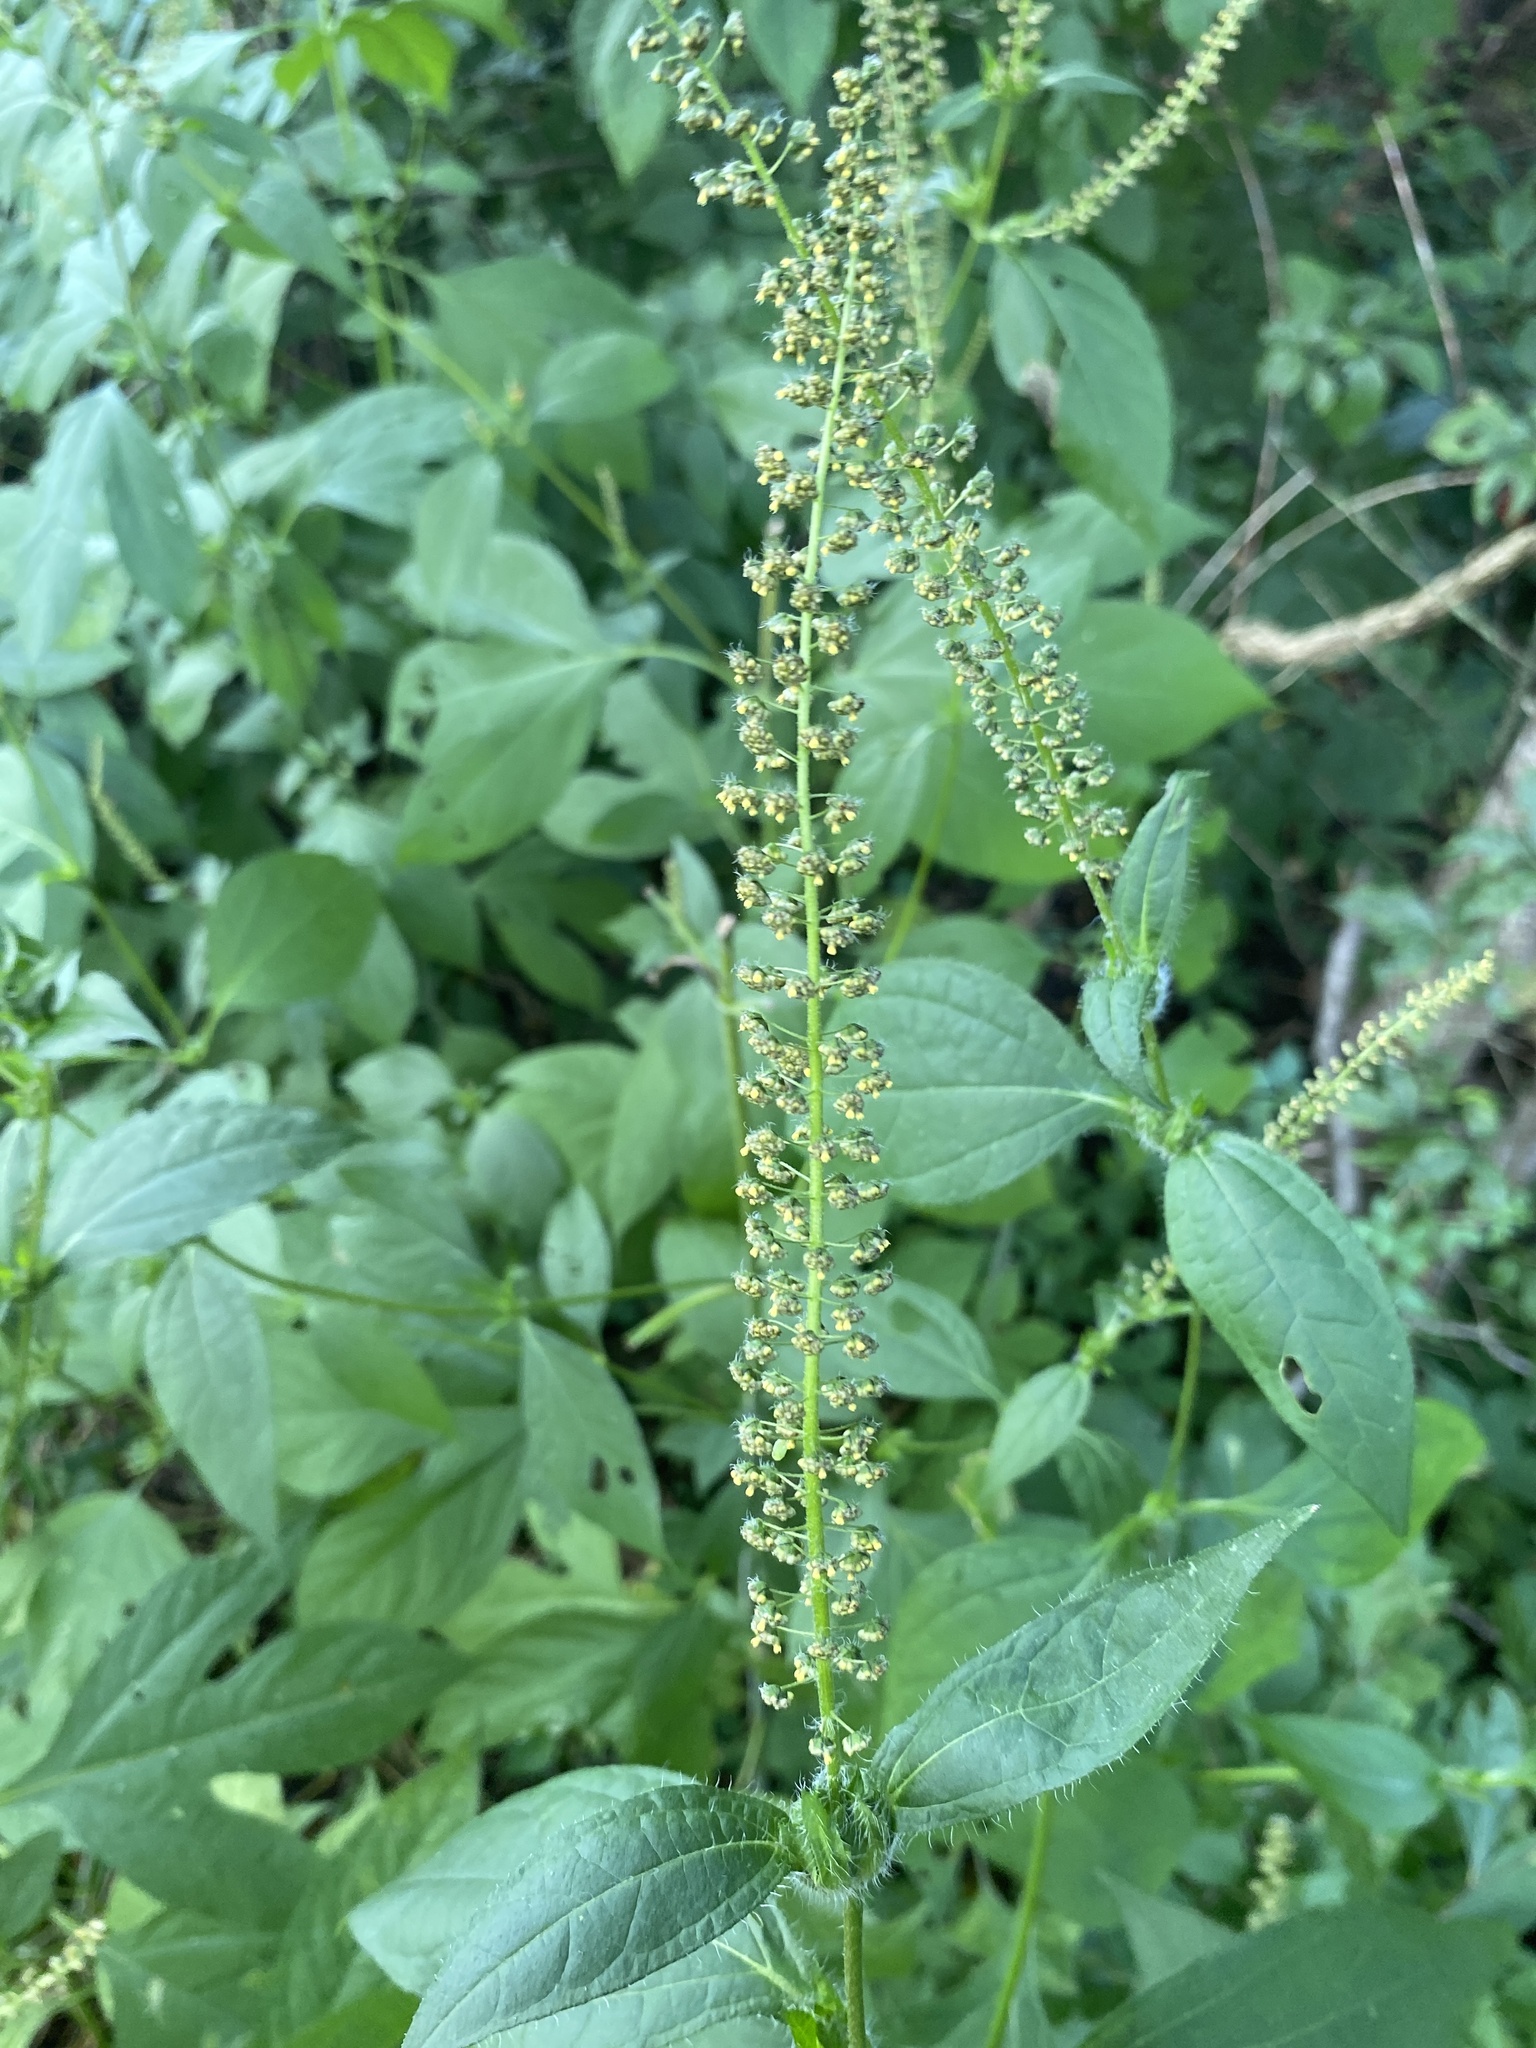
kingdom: Plantae
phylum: Tracheophyta
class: Magnoliopsida
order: Asterales
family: Asteraceae
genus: Ambrosia
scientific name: Ambrosia trifida
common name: Giant ragweed
